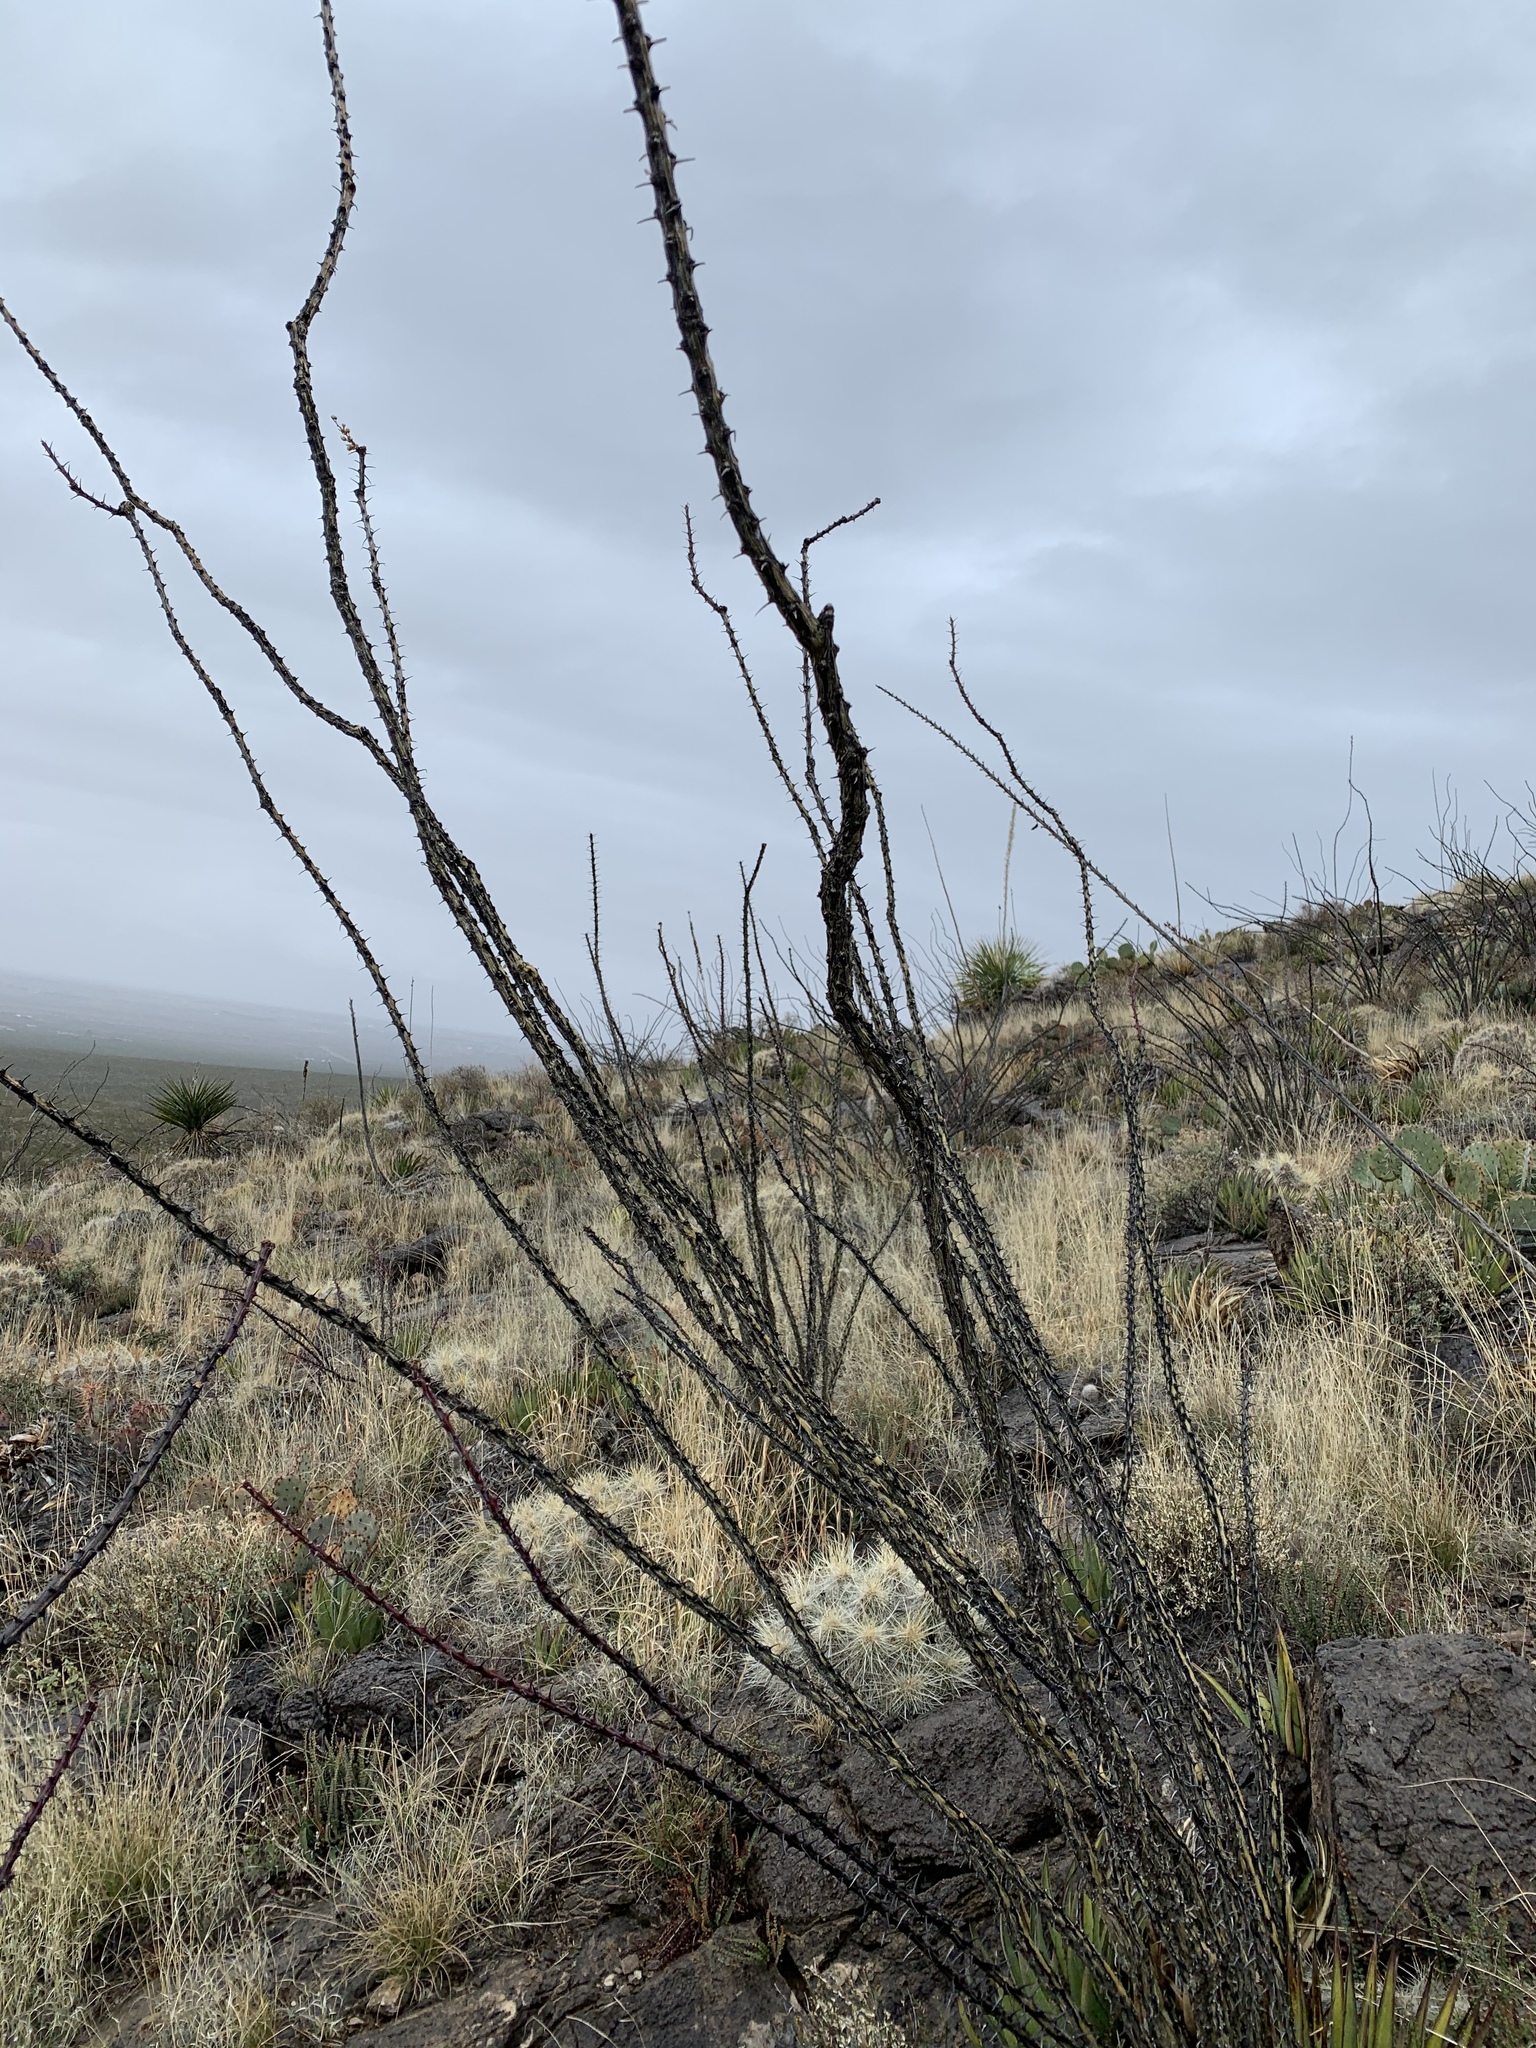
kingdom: Plantae
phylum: Tracheophyta
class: Magnoliopsida
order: Ericales
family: Fouquieriaceae
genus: Fouquieria
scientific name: Fouquieria splendens
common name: Vine-cactus
